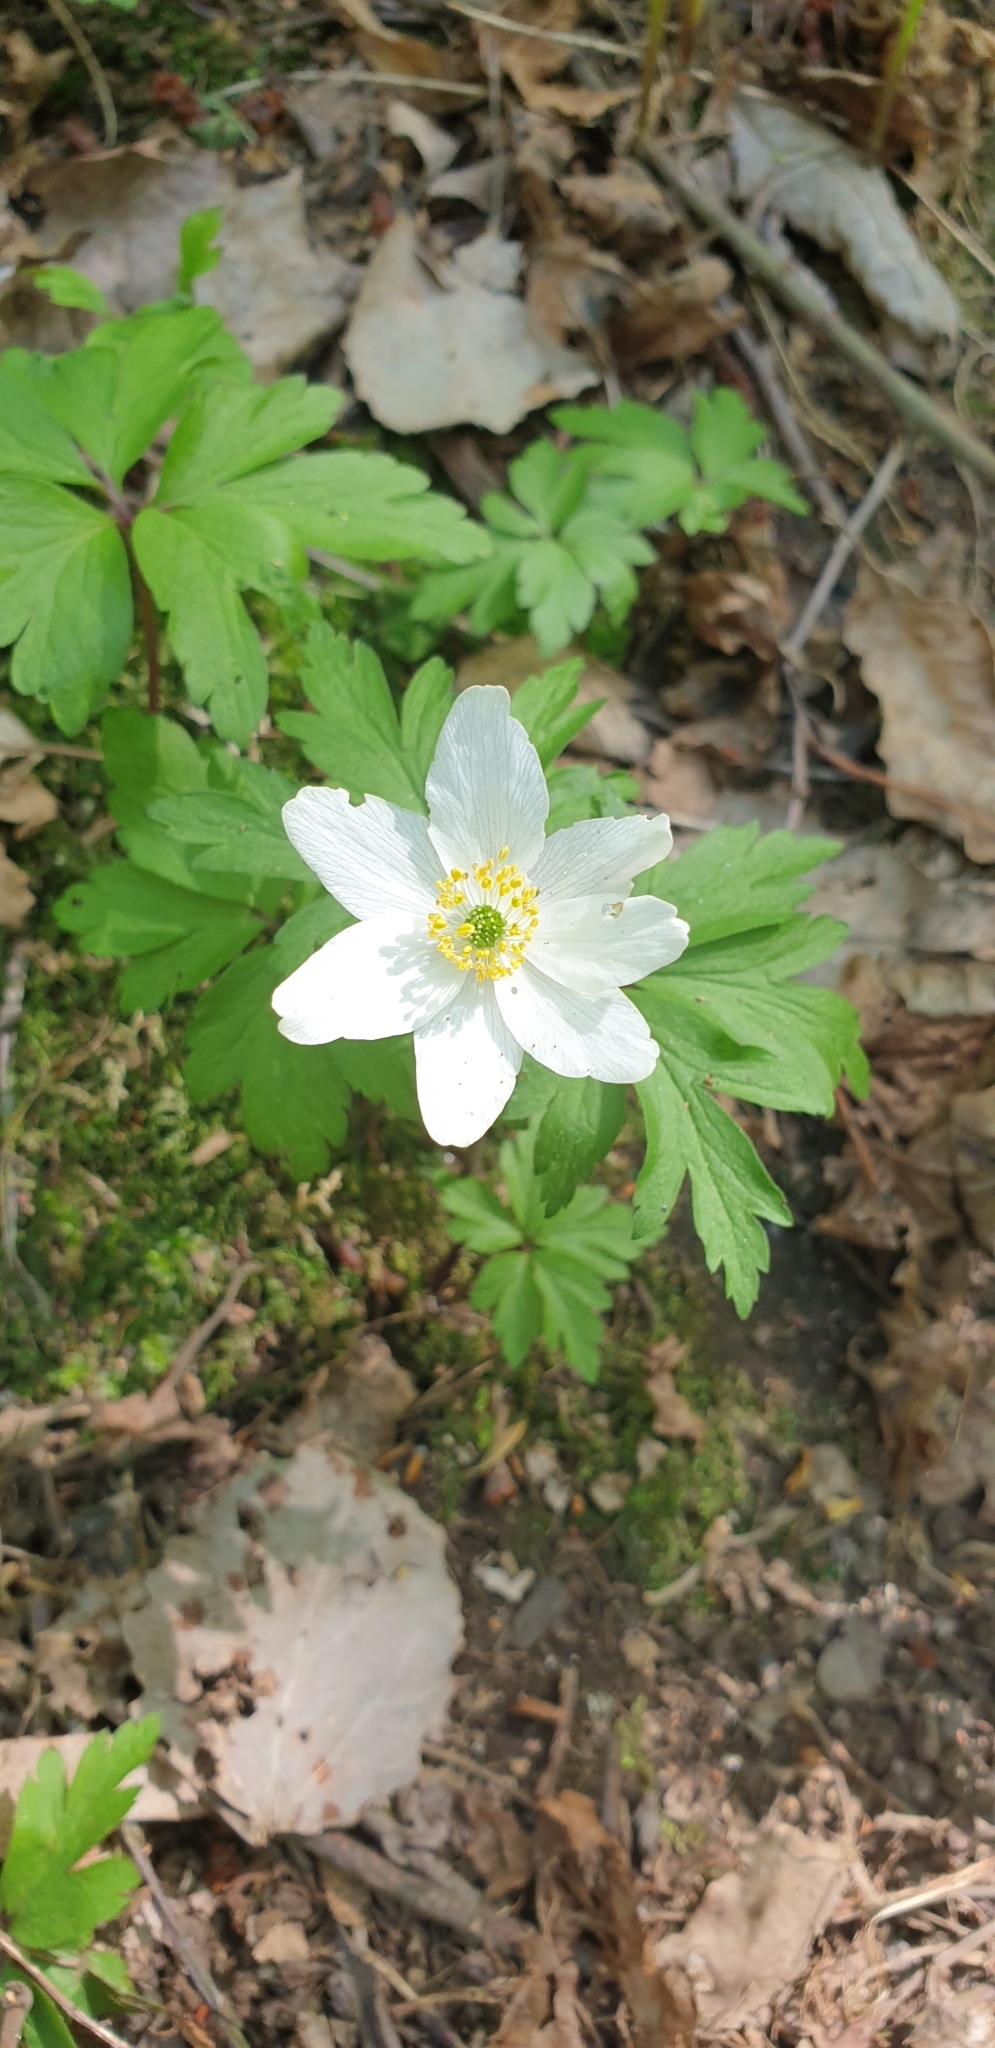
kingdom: Plantae
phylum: Tracheophyta
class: Magnoliopsida
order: Ranunculales
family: Ranunculaceae
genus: Anemone
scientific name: Anemone nemorosa
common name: Wood anemone
